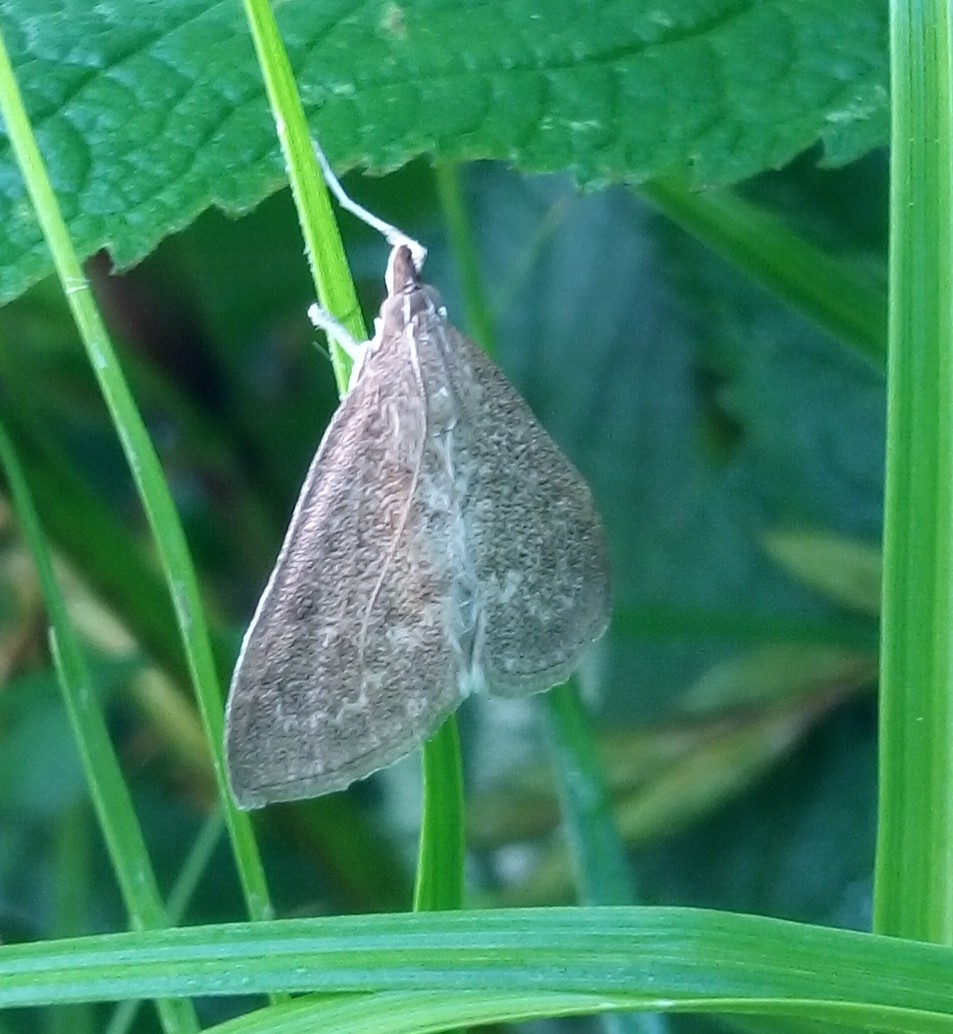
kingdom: Animalia
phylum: Arthropoda
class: Insecta
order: Lepidoptera
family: Crambidae
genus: Saucrobotys
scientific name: Saucrobotys futilalis
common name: Dogbane saucrobotys moth
